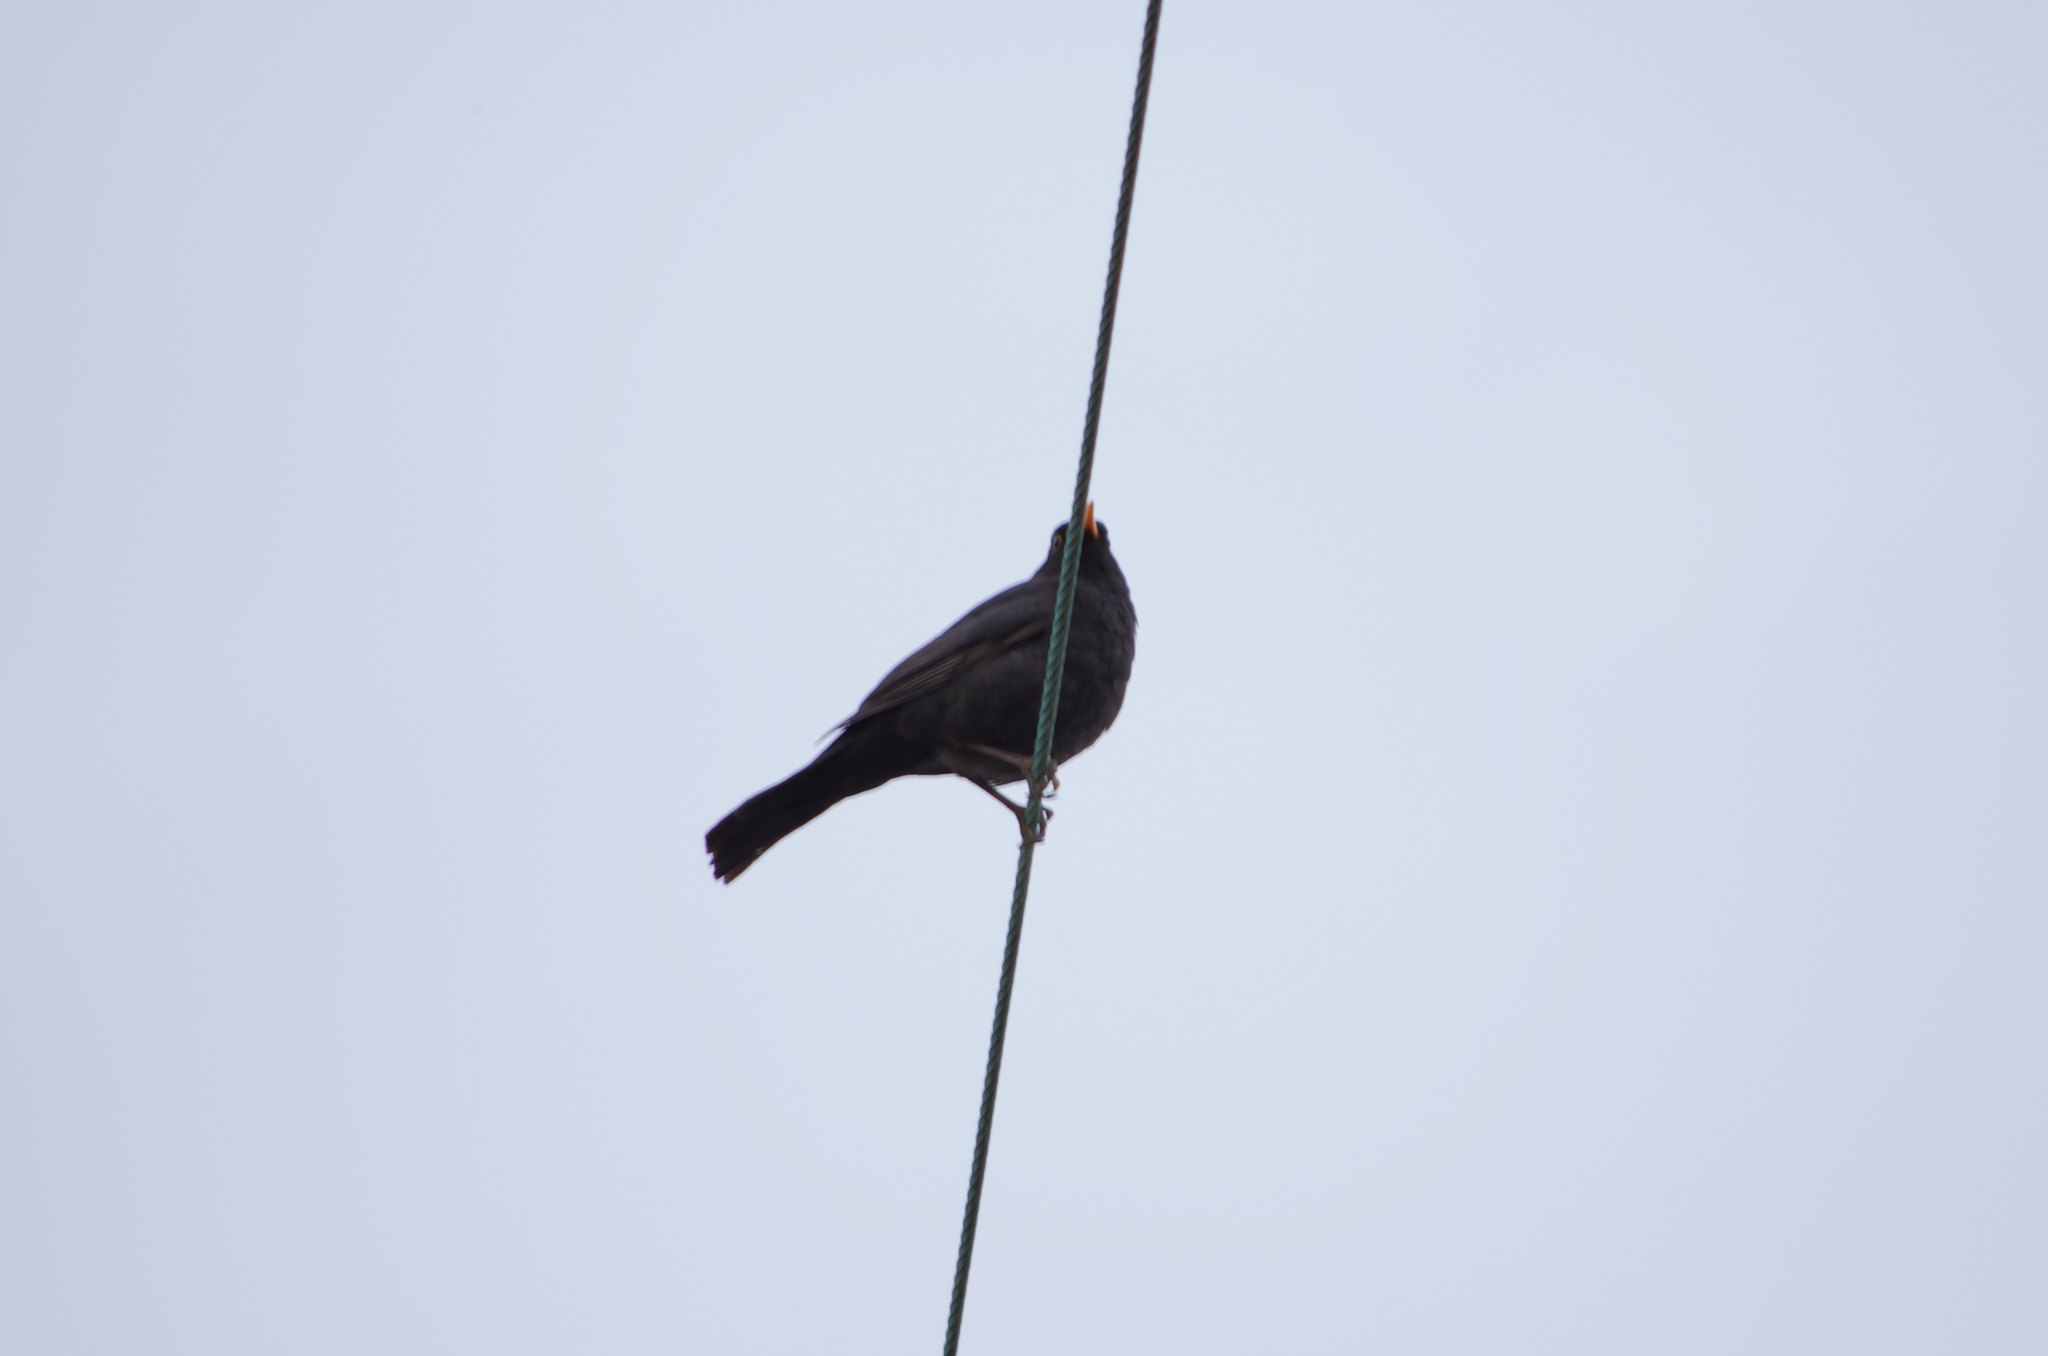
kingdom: Animalia
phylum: Chordata
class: Aves
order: Passeriformes
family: Turdidae
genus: Turdus
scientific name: Turdus merula
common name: Common blackbird
